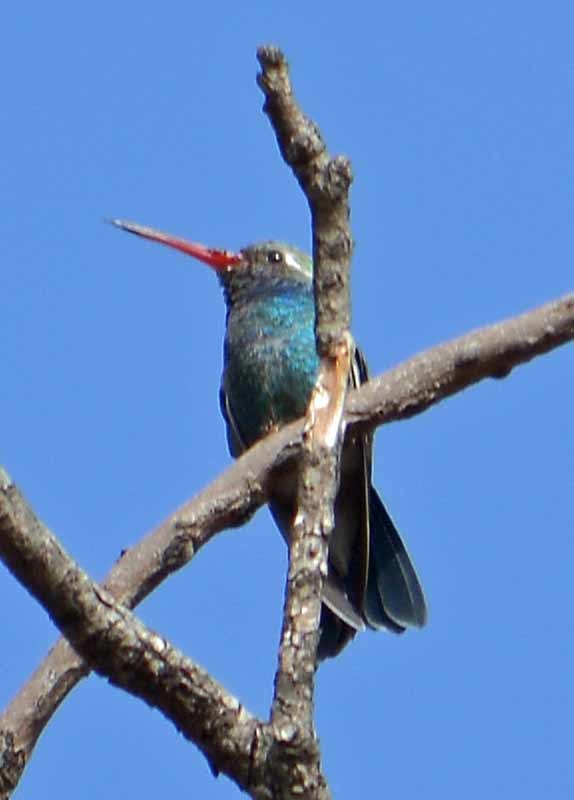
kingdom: Animalia
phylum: Chordata
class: Aves
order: Apodiformes
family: Trochilidae
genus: Cynanthus
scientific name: Cynanthus latirostris
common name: Broad-billed hummingbird
